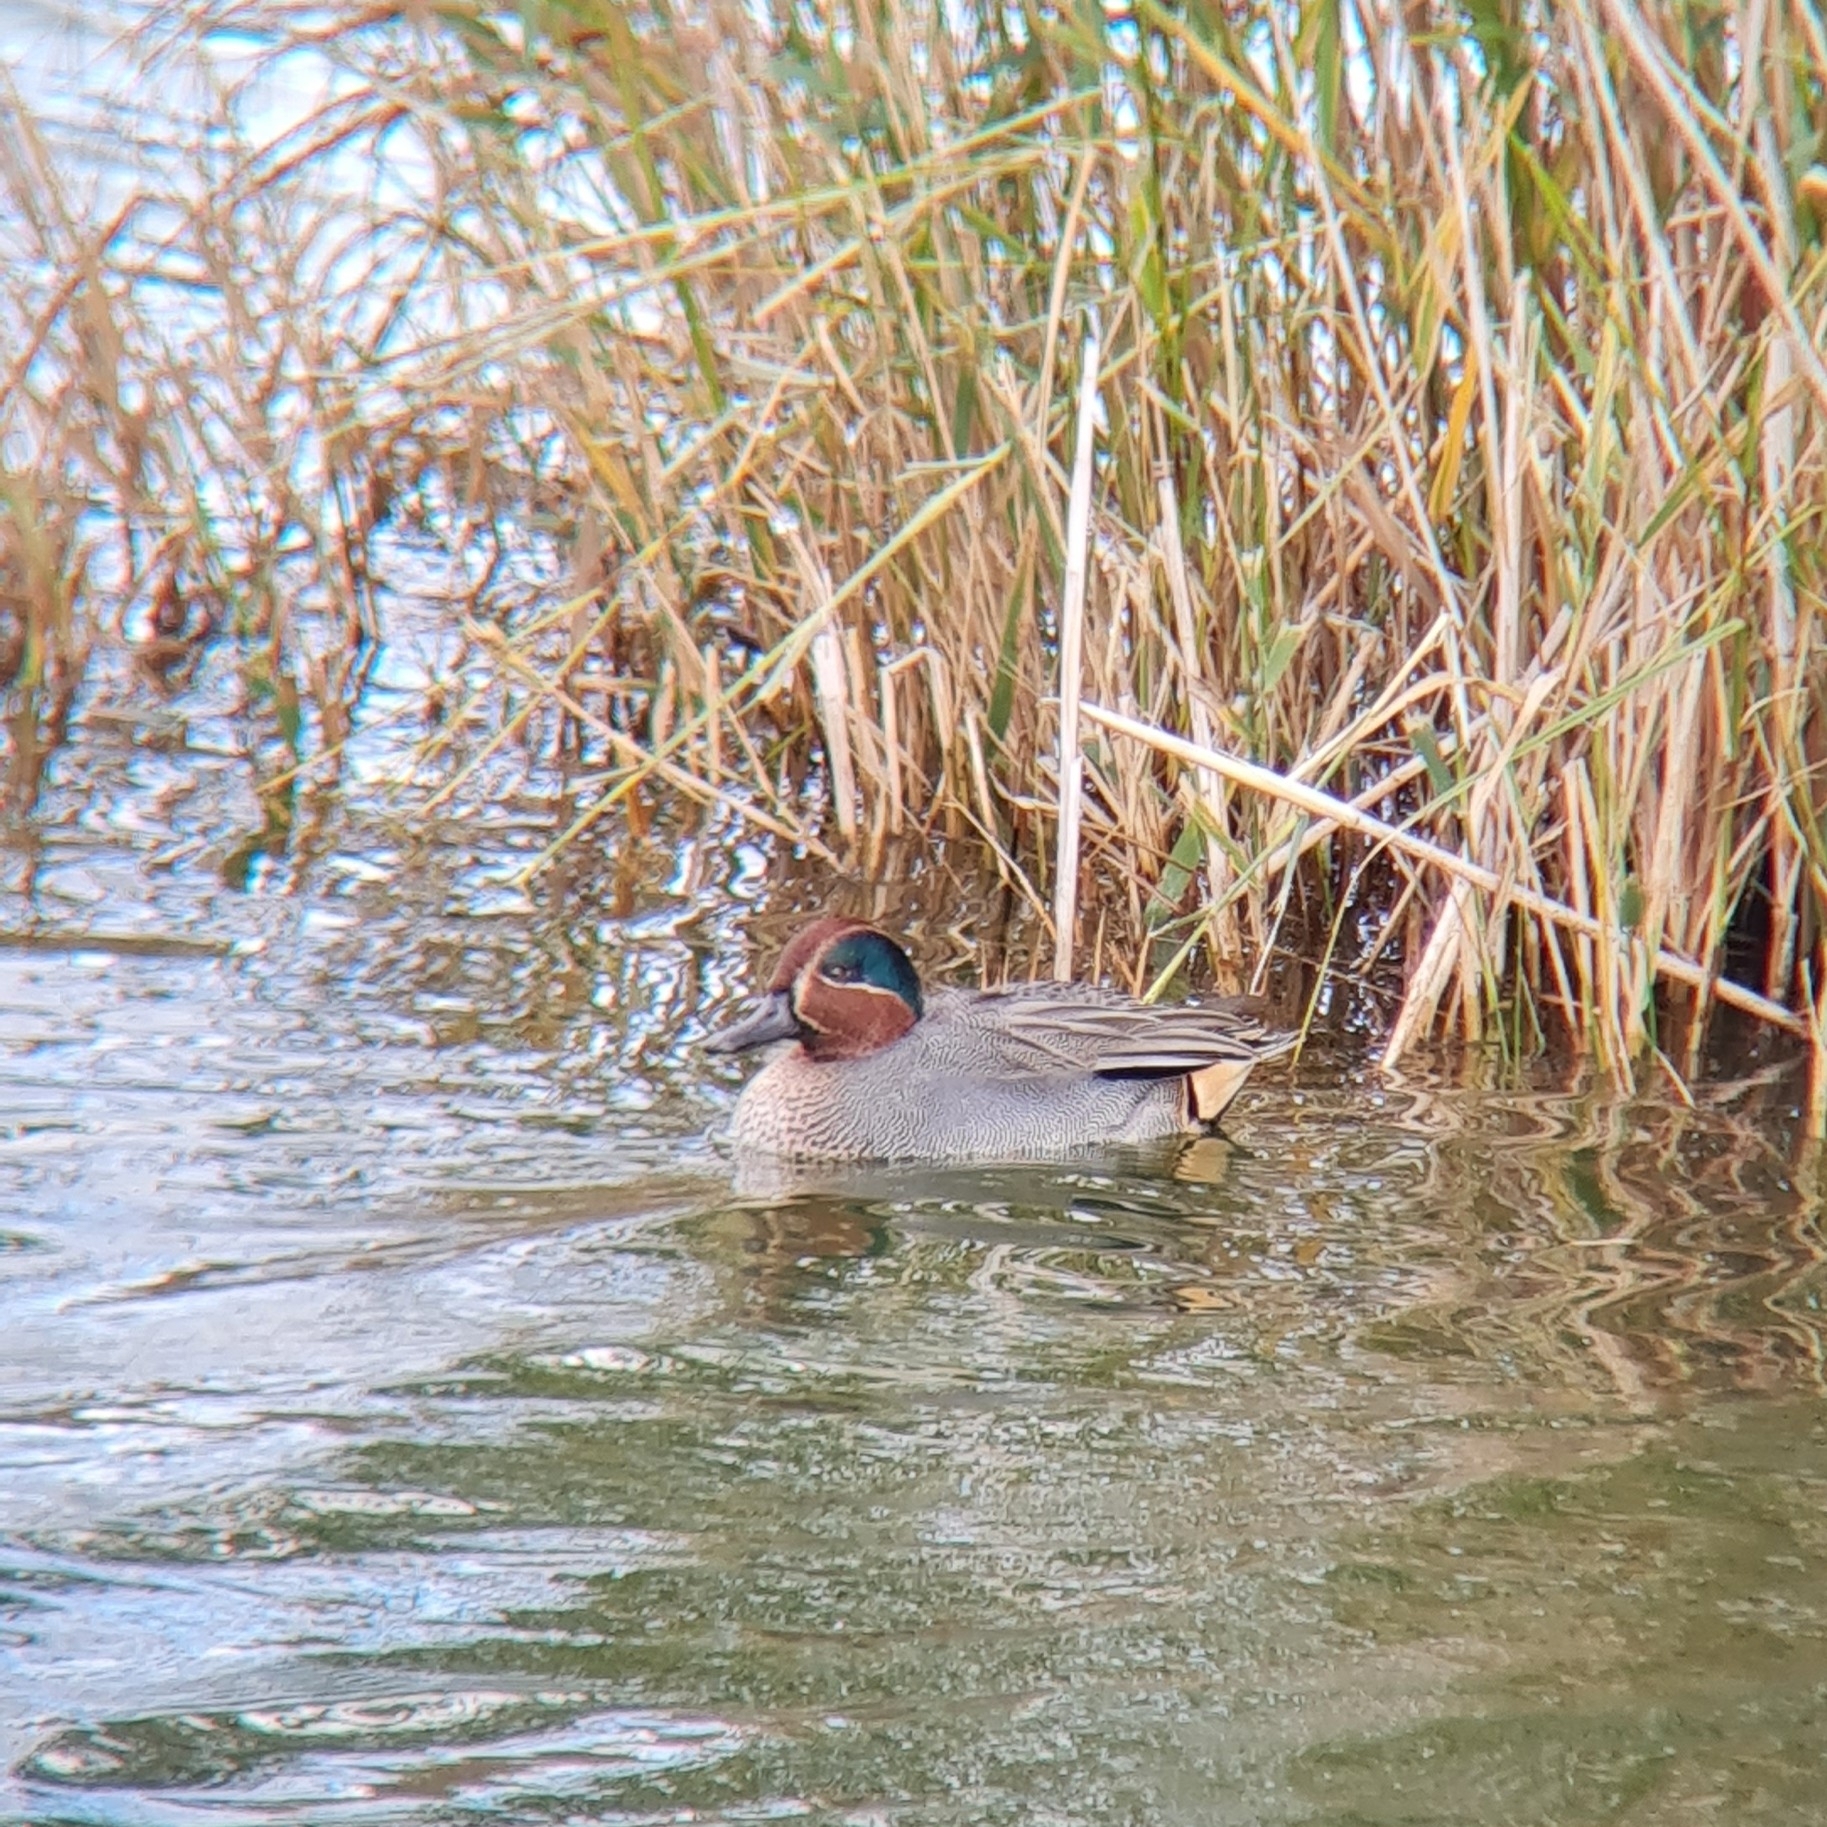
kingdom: Animalia
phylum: Chordata
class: Aves
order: Anseriformes
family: Anatidae
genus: Anas
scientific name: Anas crecca
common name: Eurasian teal
